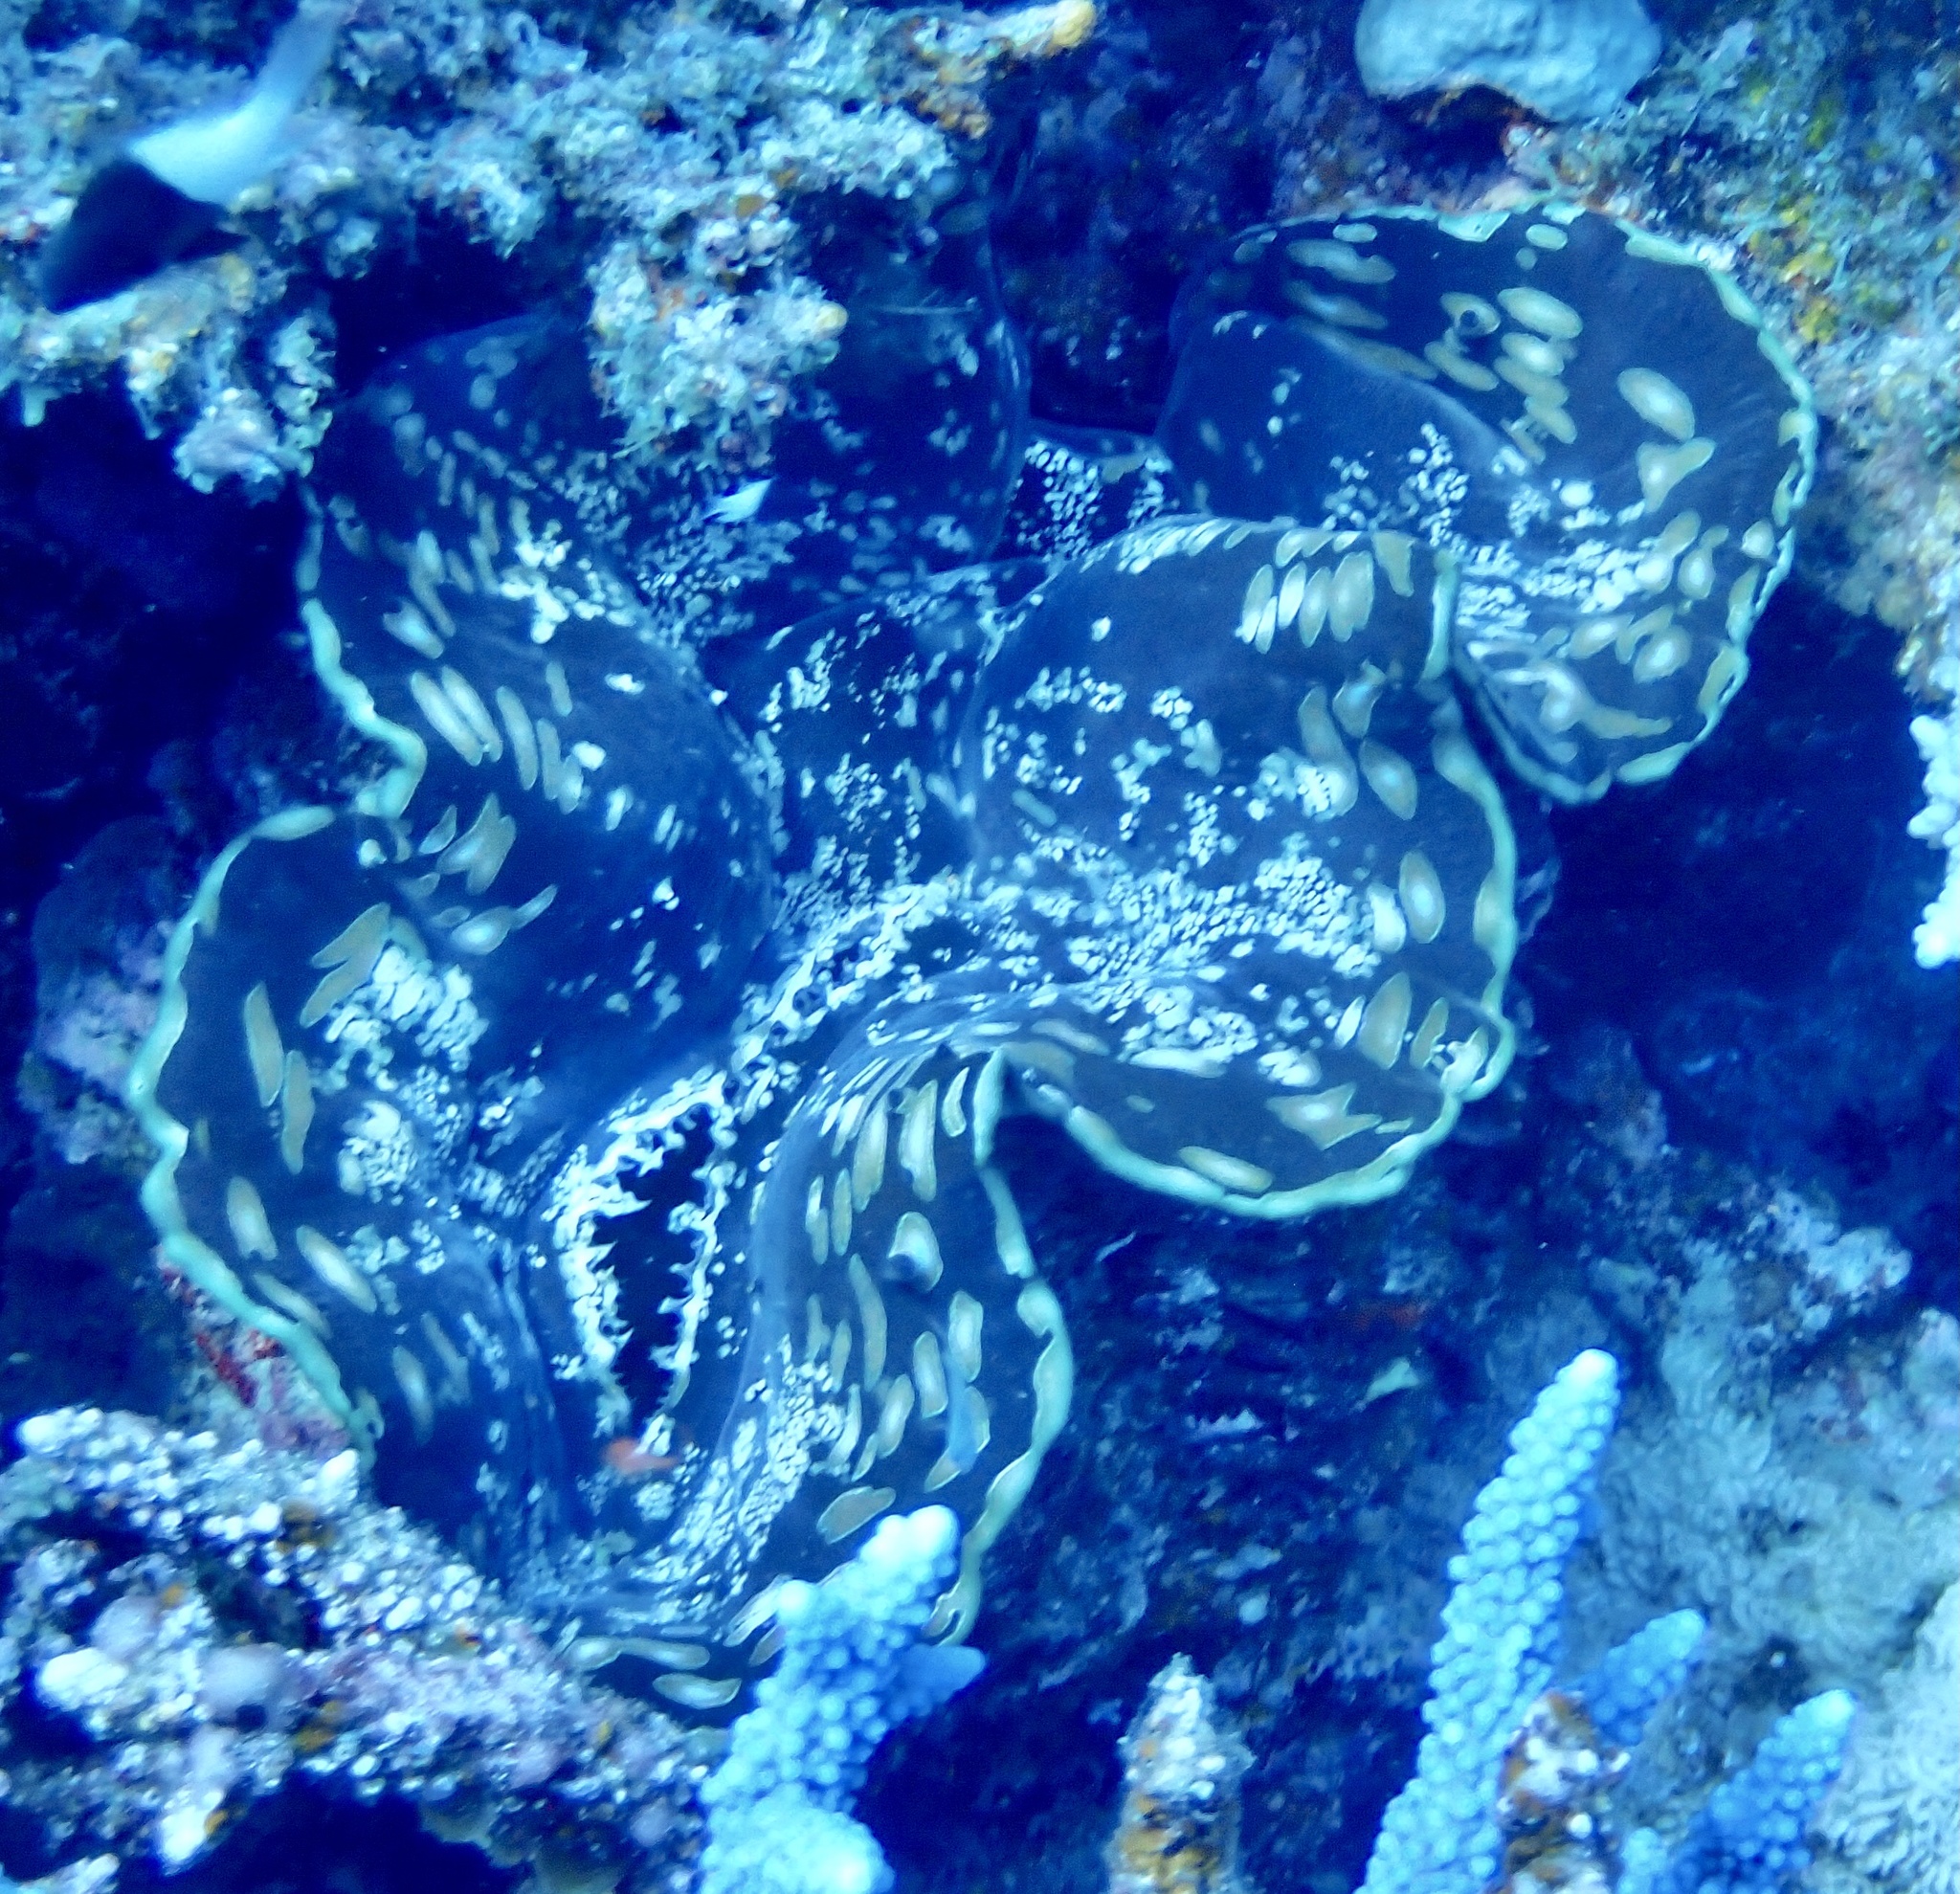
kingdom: Animalia
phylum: Mollusca
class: Bivalvia
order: Cardiida
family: Cardiidae
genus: Tridacna
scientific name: Tridacna squamosa
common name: Fluted clam
